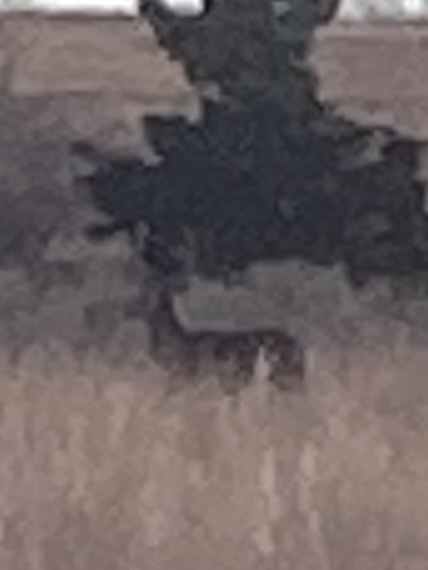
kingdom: Animalia
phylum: Chordata
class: Mammalia
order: Artiodactyla
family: Cervidae
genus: Odocoileus
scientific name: Odocoileus virginianus
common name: White-tailed deer
